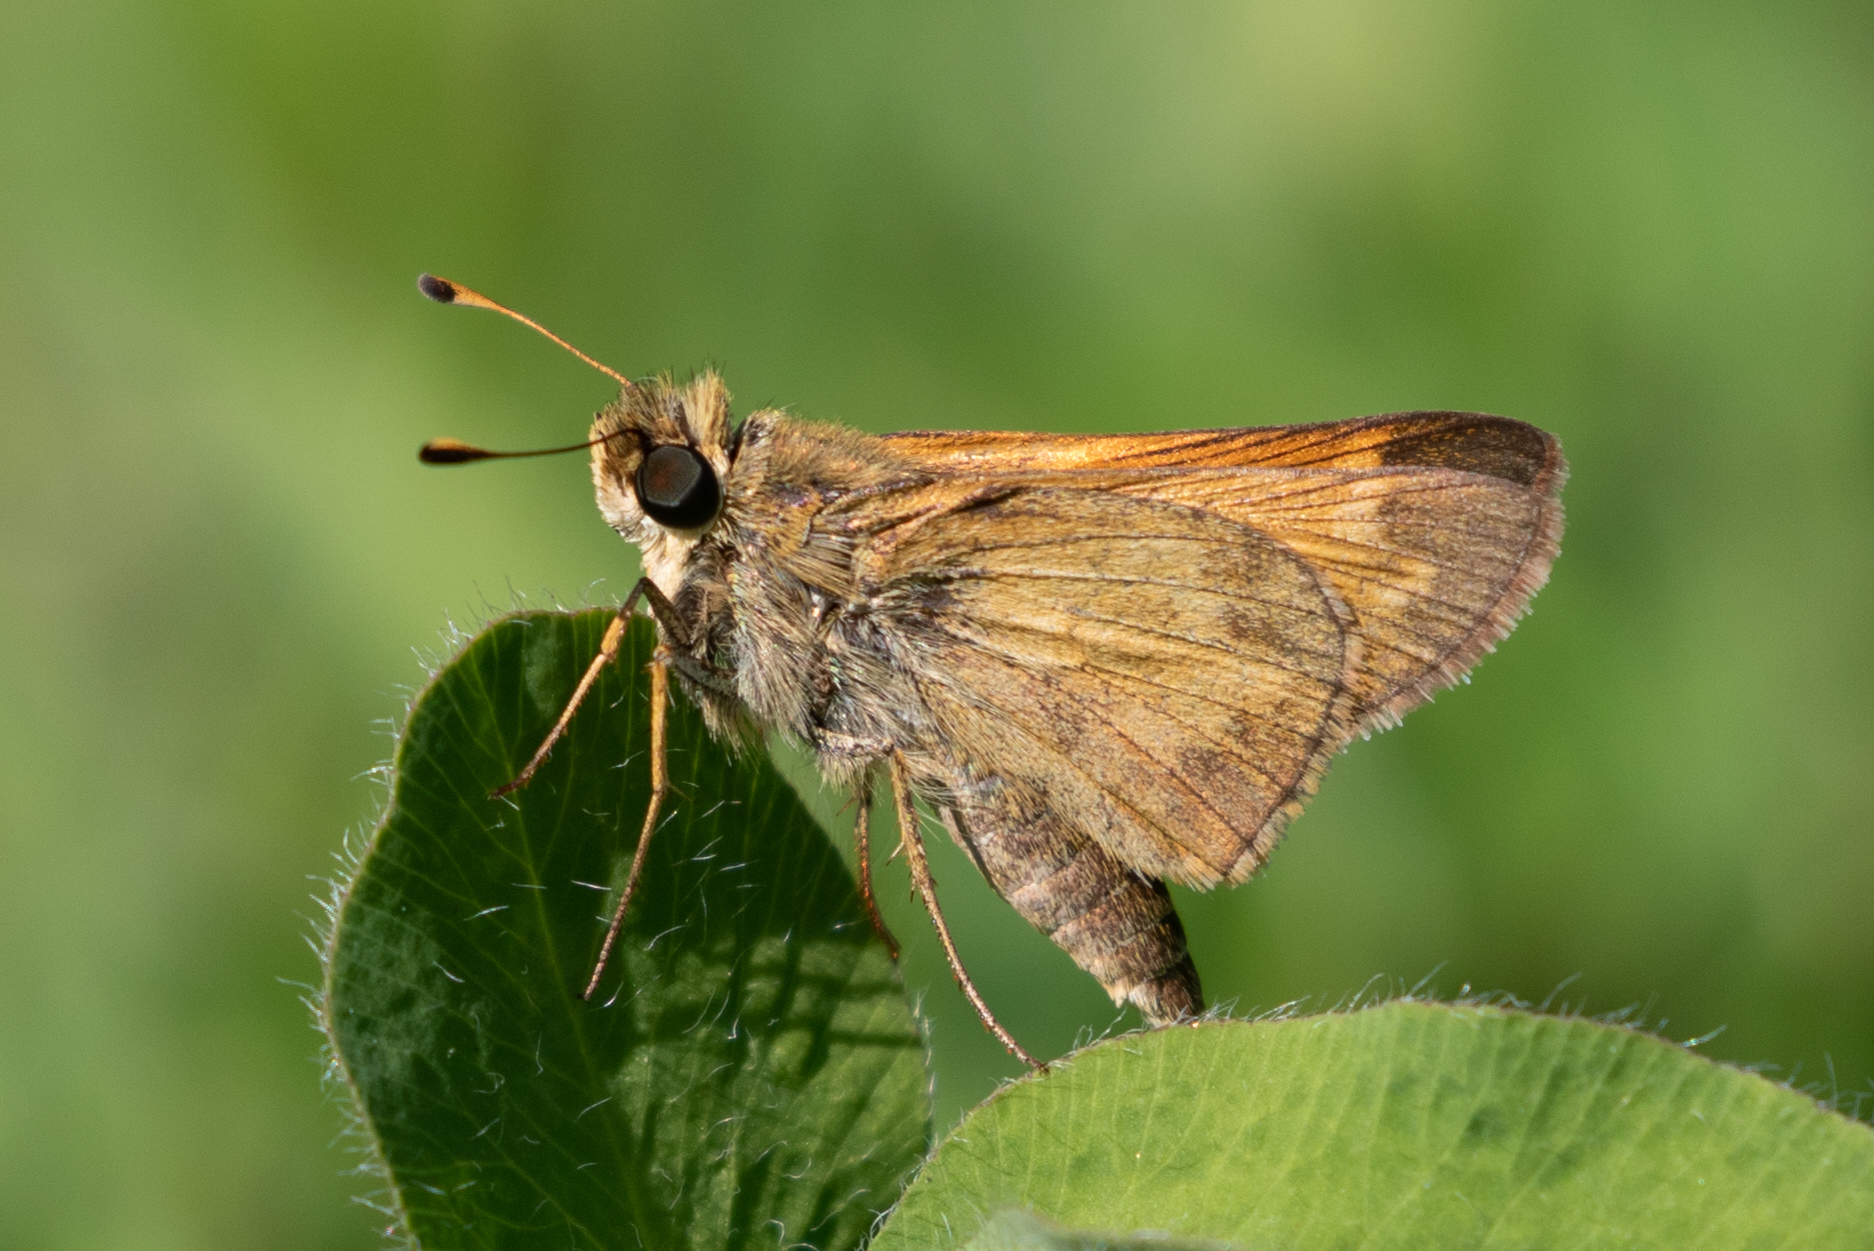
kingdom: Animalia
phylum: Arthropoda
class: Insecta
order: Lepidoptera
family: Hesperiidae
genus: Atalopedes
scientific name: Atalopedes
